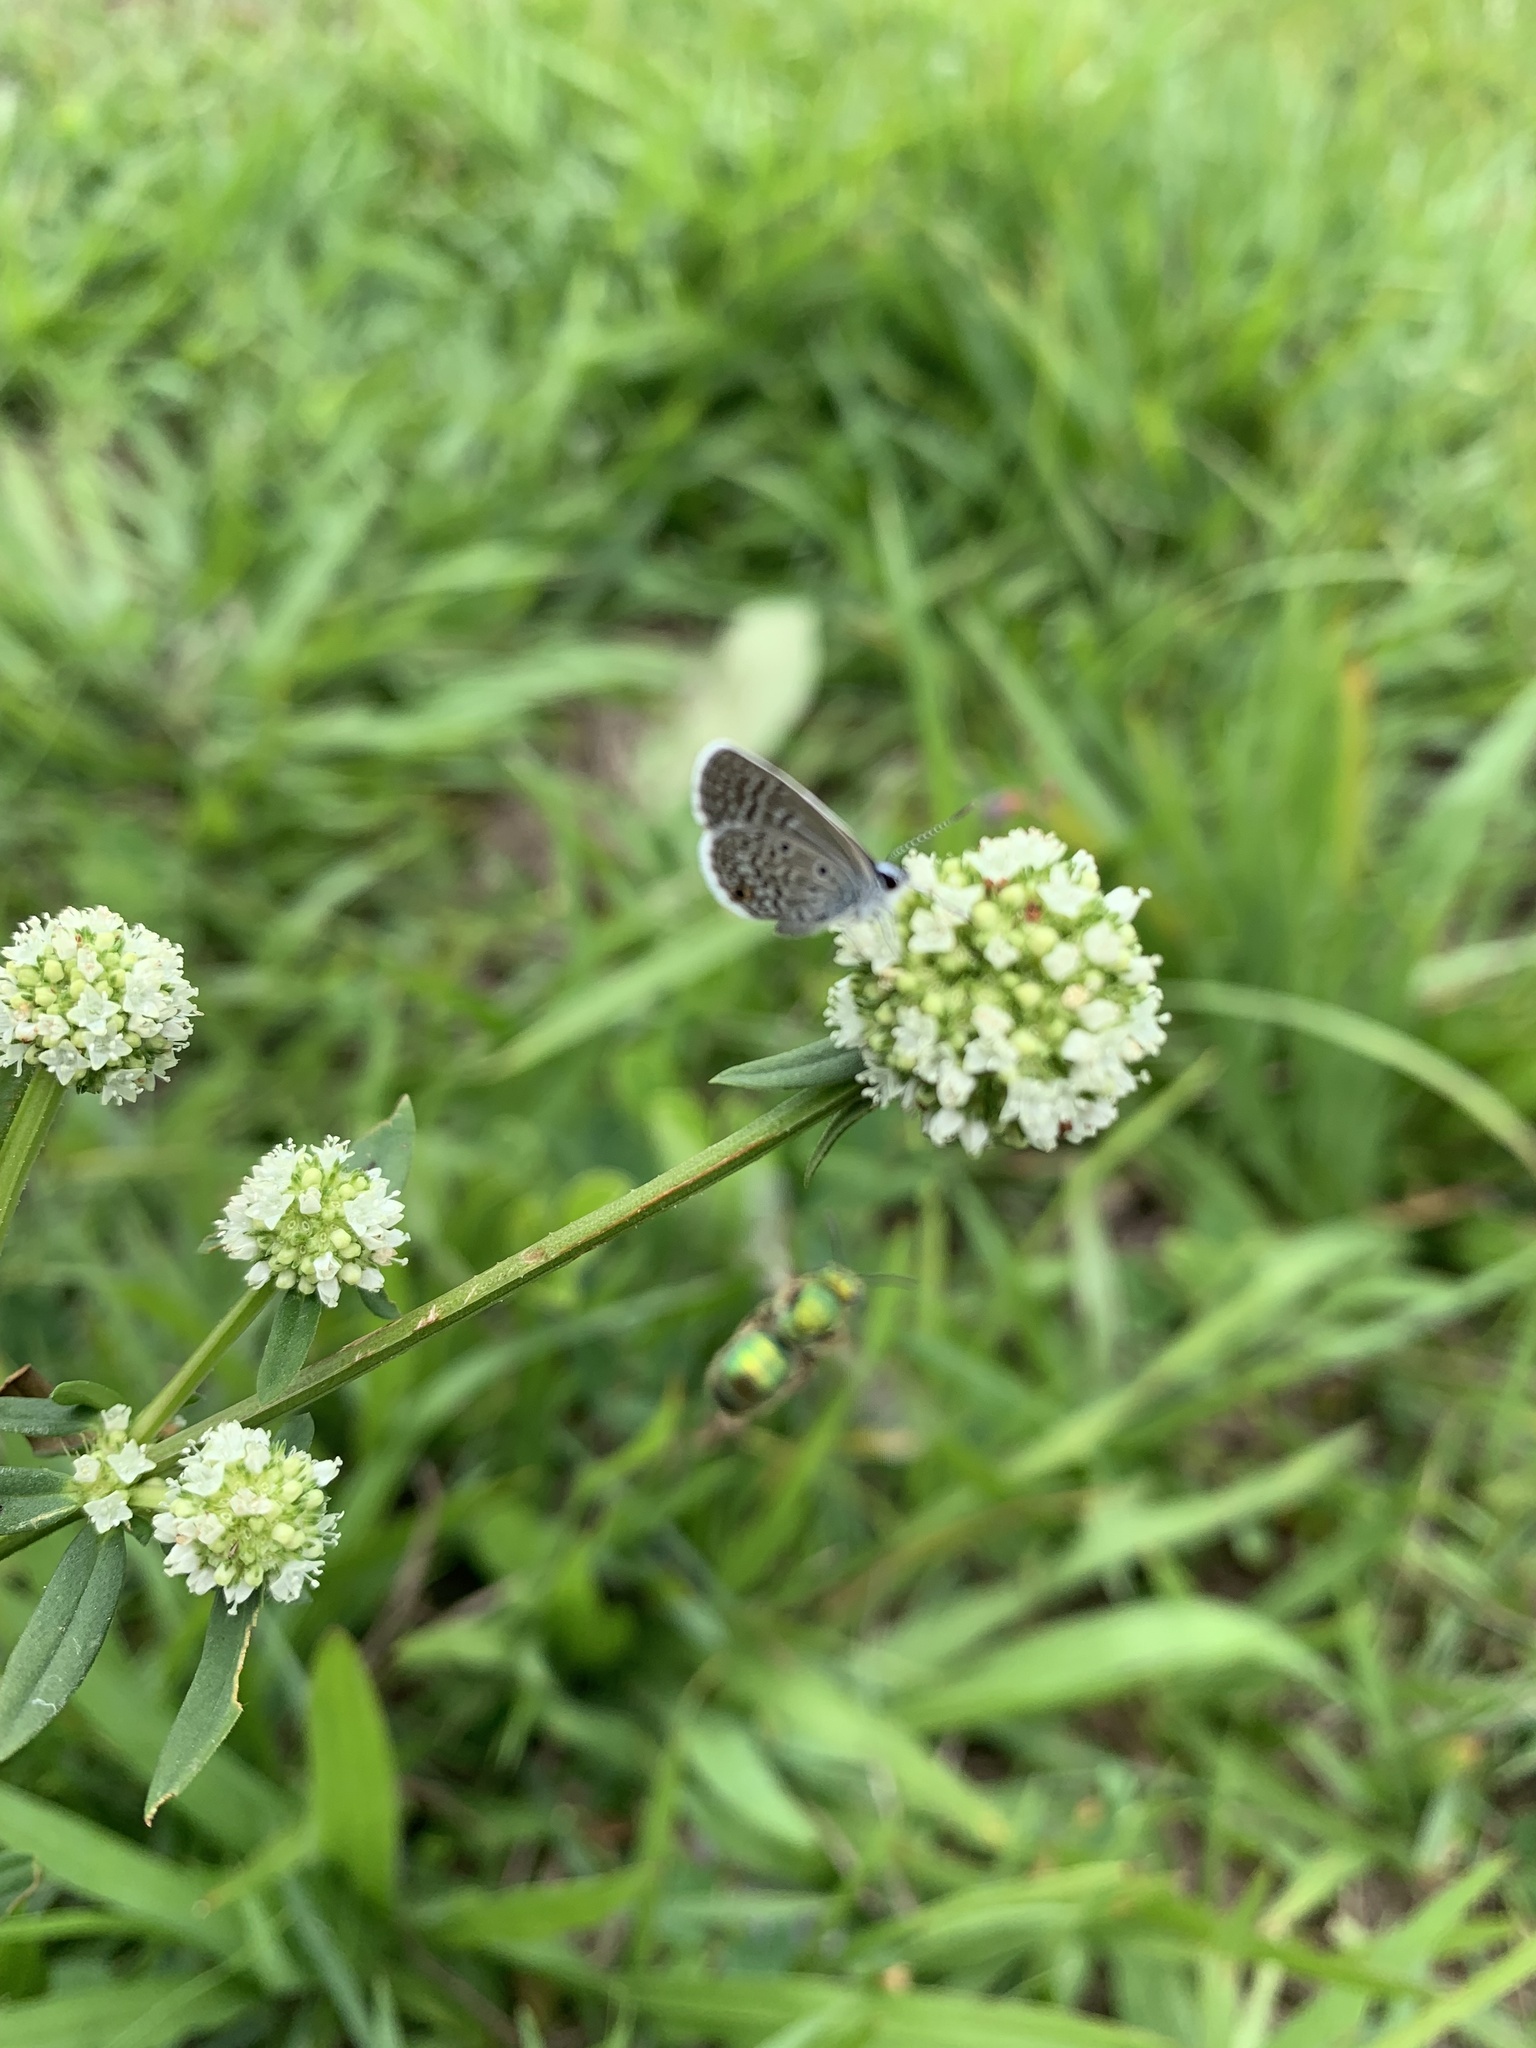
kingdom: Animalia
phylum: Arthropoda
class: Insecta
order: Lepidoptera
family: Lycaenidae
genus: Hemiargus
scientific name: Hemiargus hanno
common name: Common blue
